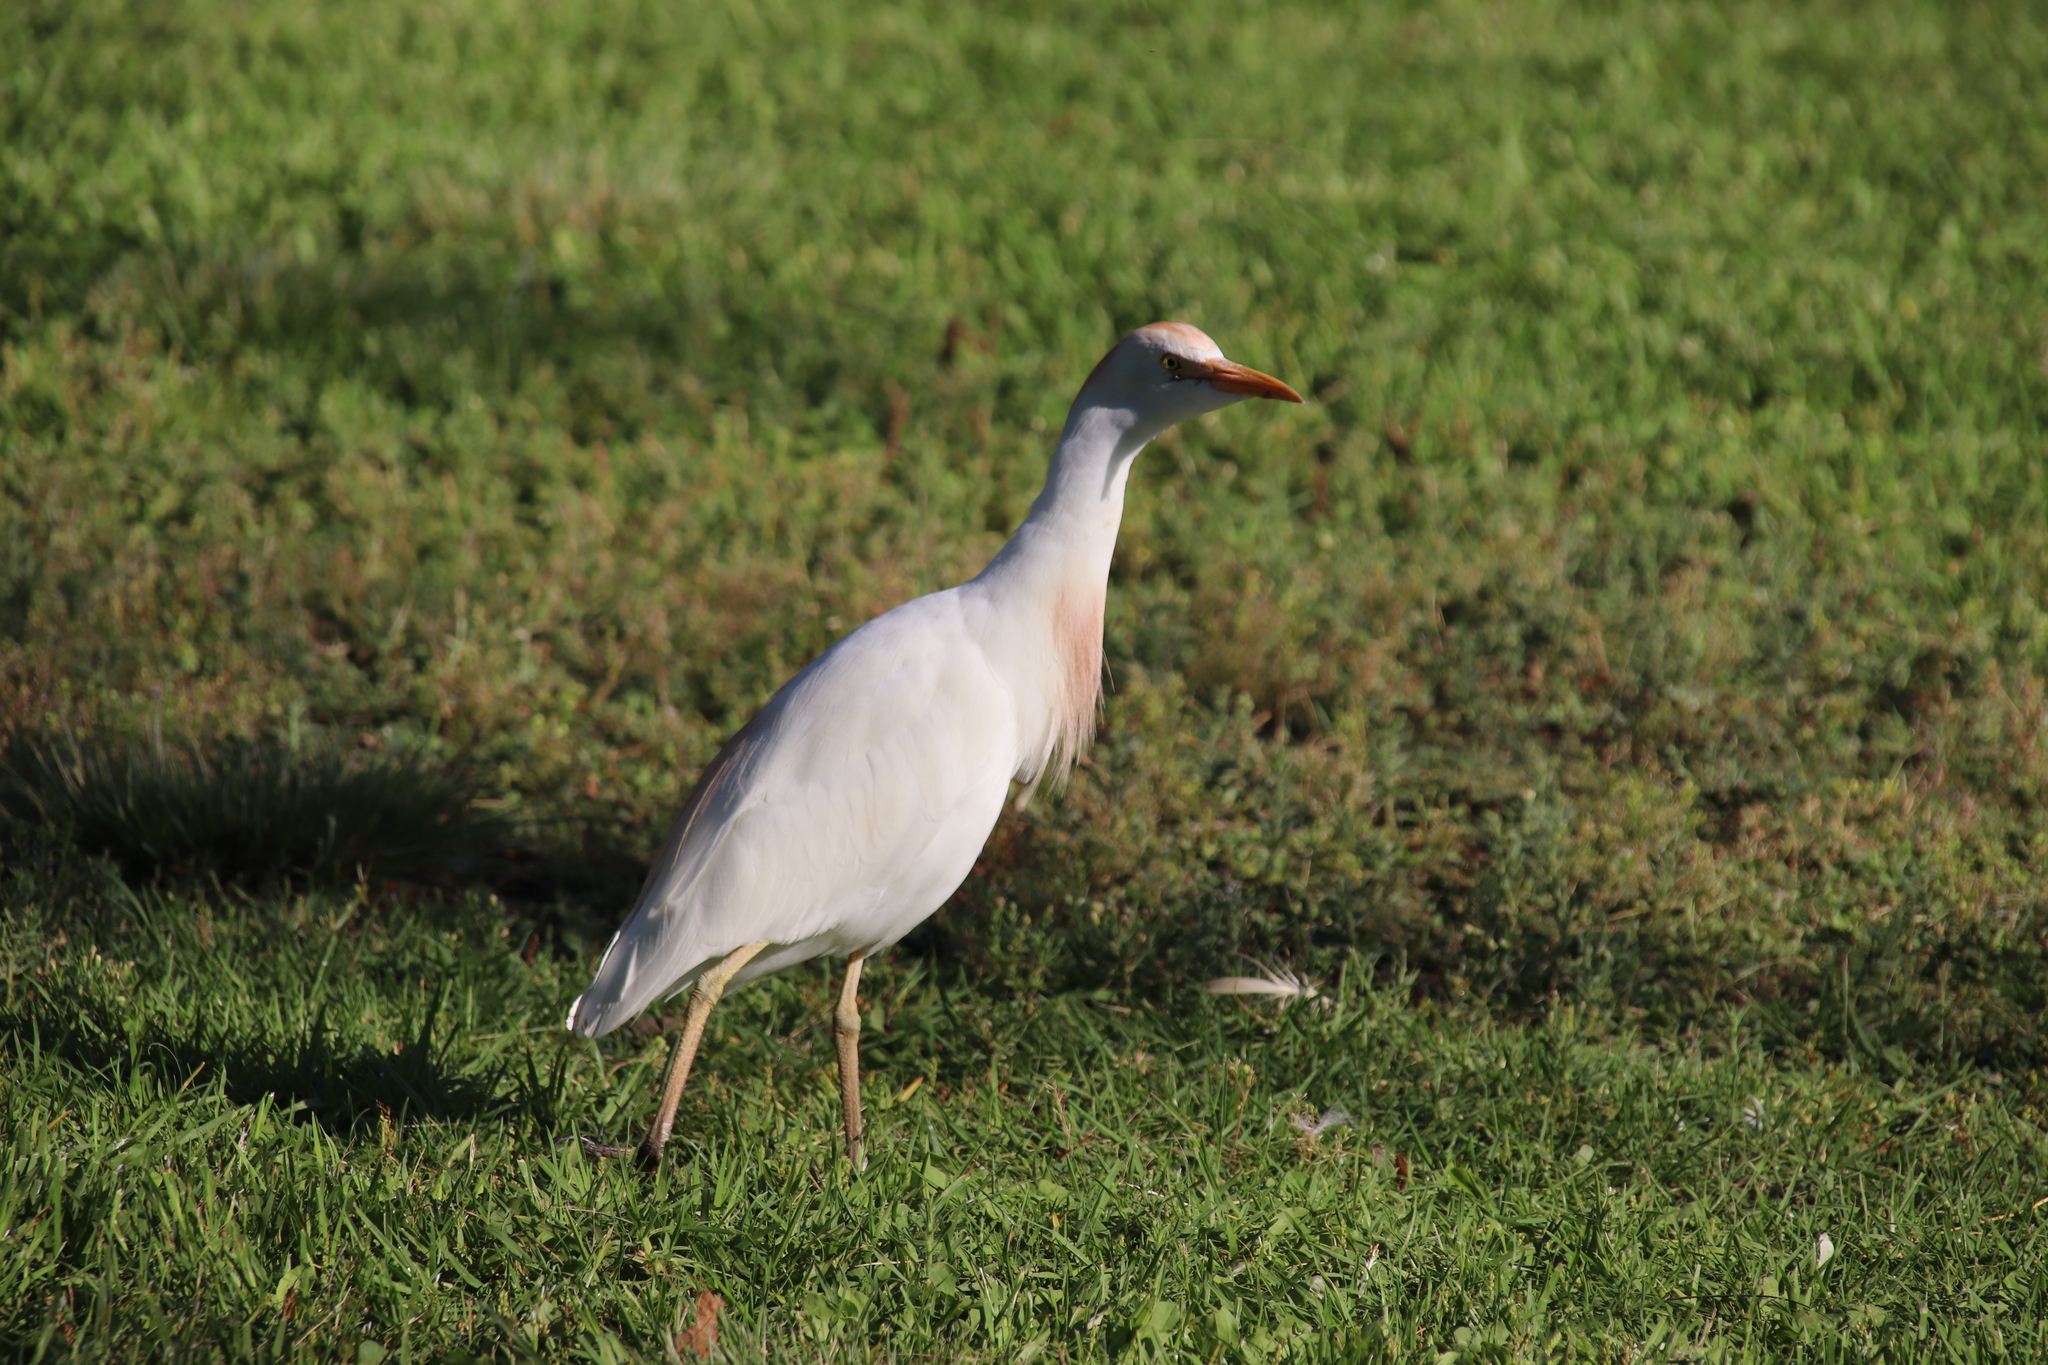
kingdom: Animalia
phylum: Chordata
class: Aves
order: Pelecaniformes
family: Ardeidae
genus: Bubulcus
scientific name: Bubulcus ibis
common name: Cattle egret
